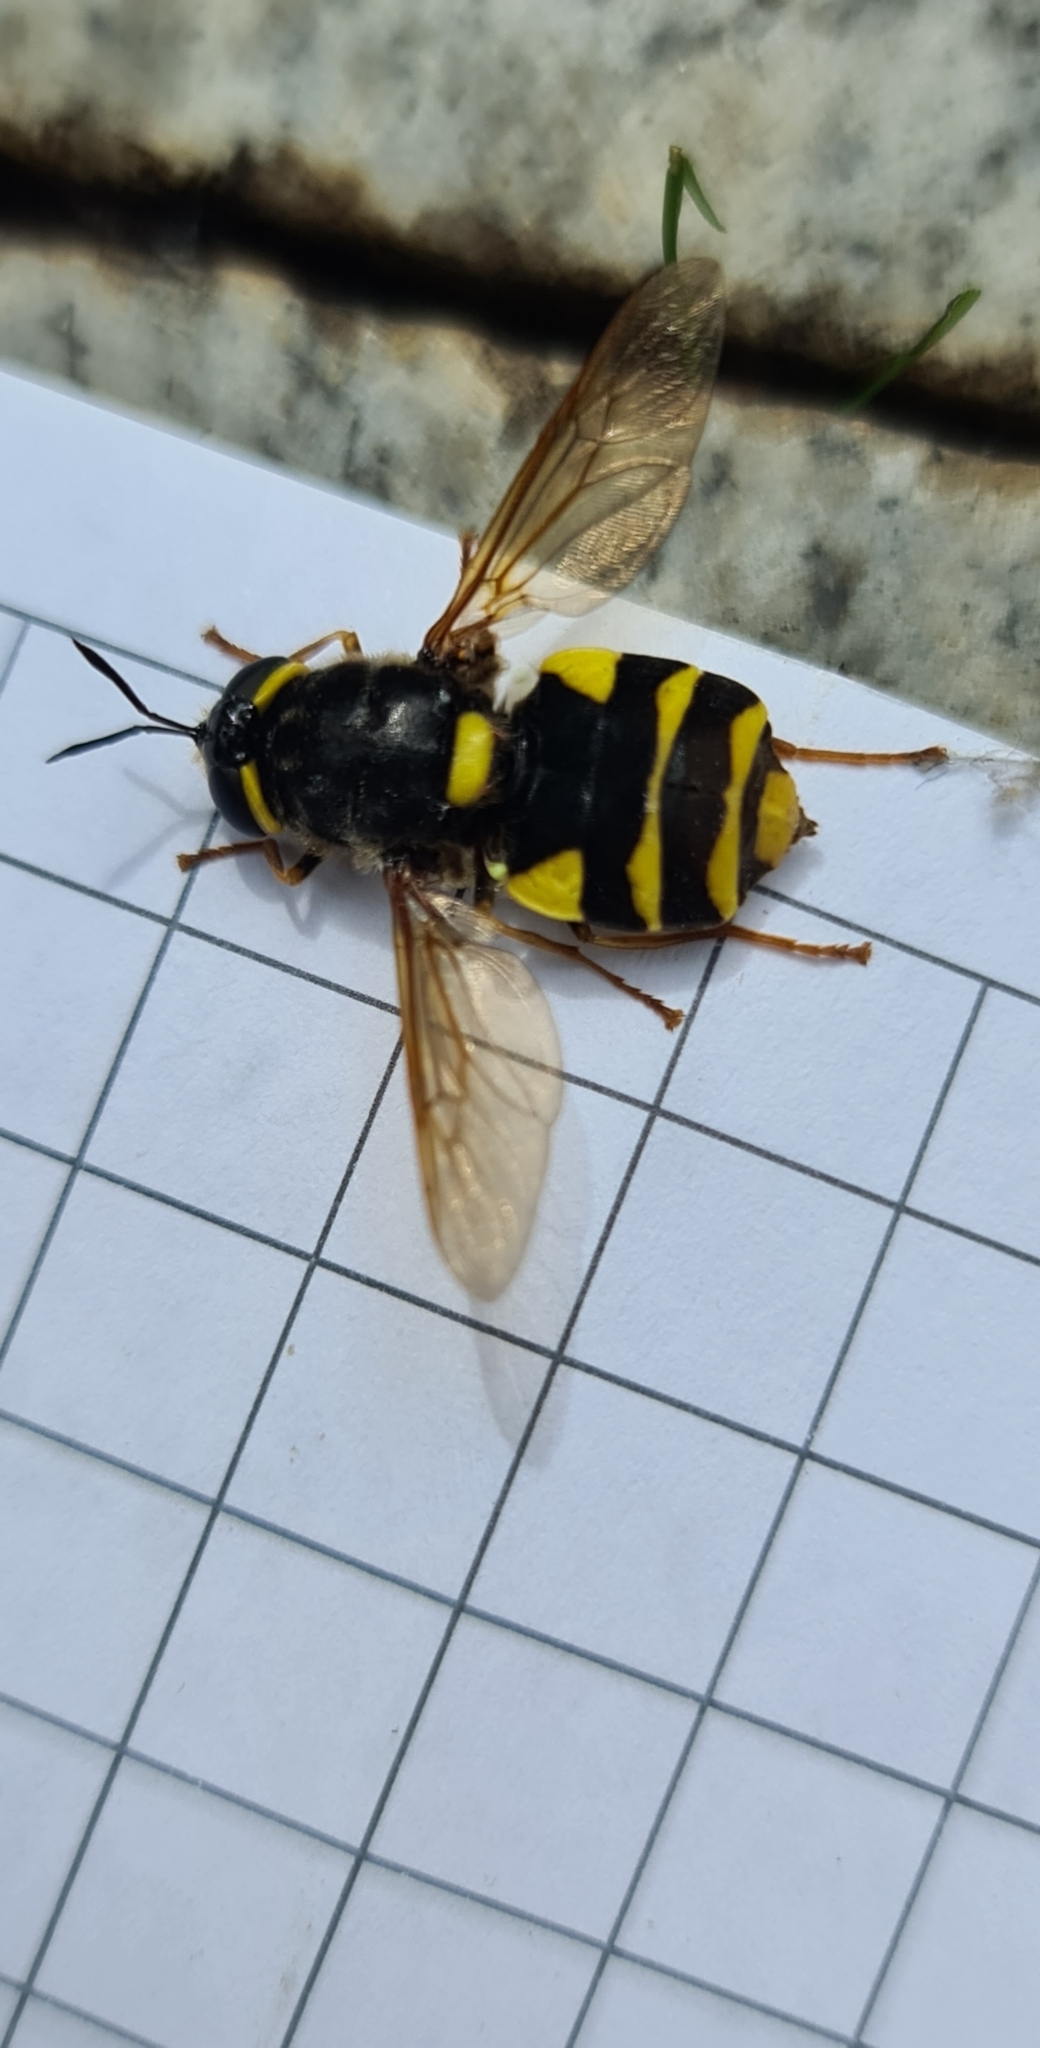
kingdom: Animalia
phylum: Arthropoda
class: Insecta
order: Diptera
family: Stratiomyidae
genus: Stratiomys
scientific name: Stratiomys potamida
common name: Banded general
